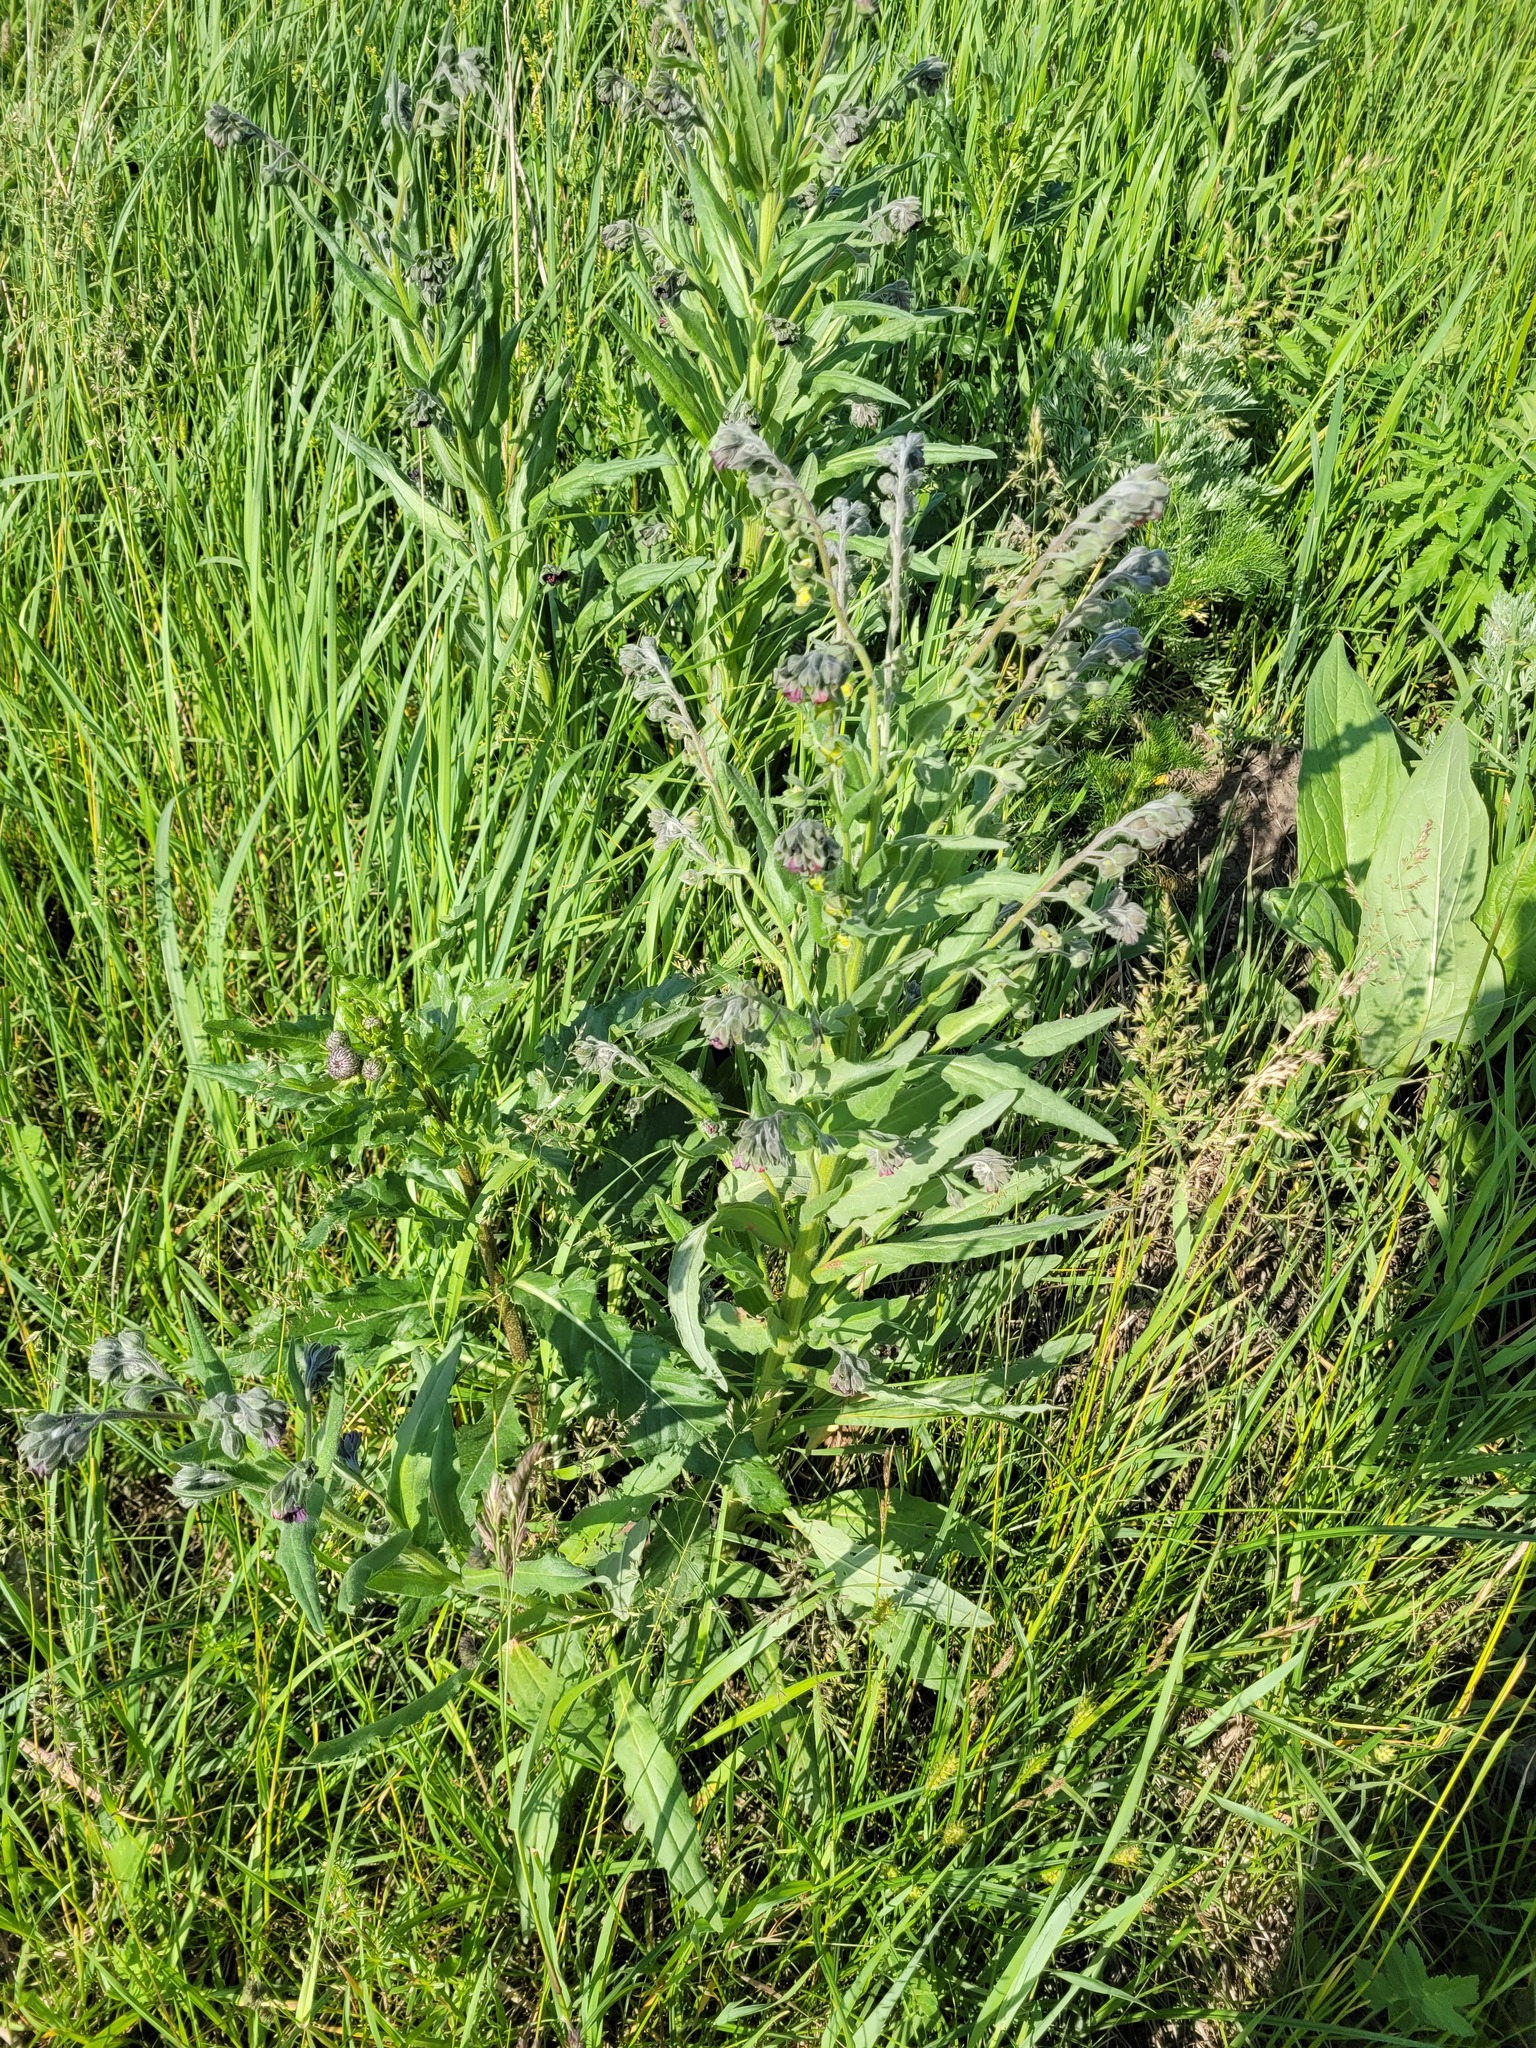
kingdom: Plantae
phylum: Tracheophyta
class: Magnoliopsida
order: Boraginales
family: Boraginaceae
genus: Cynoglossum
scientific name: Cynoglossum officinale
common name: Hound's-tongue
